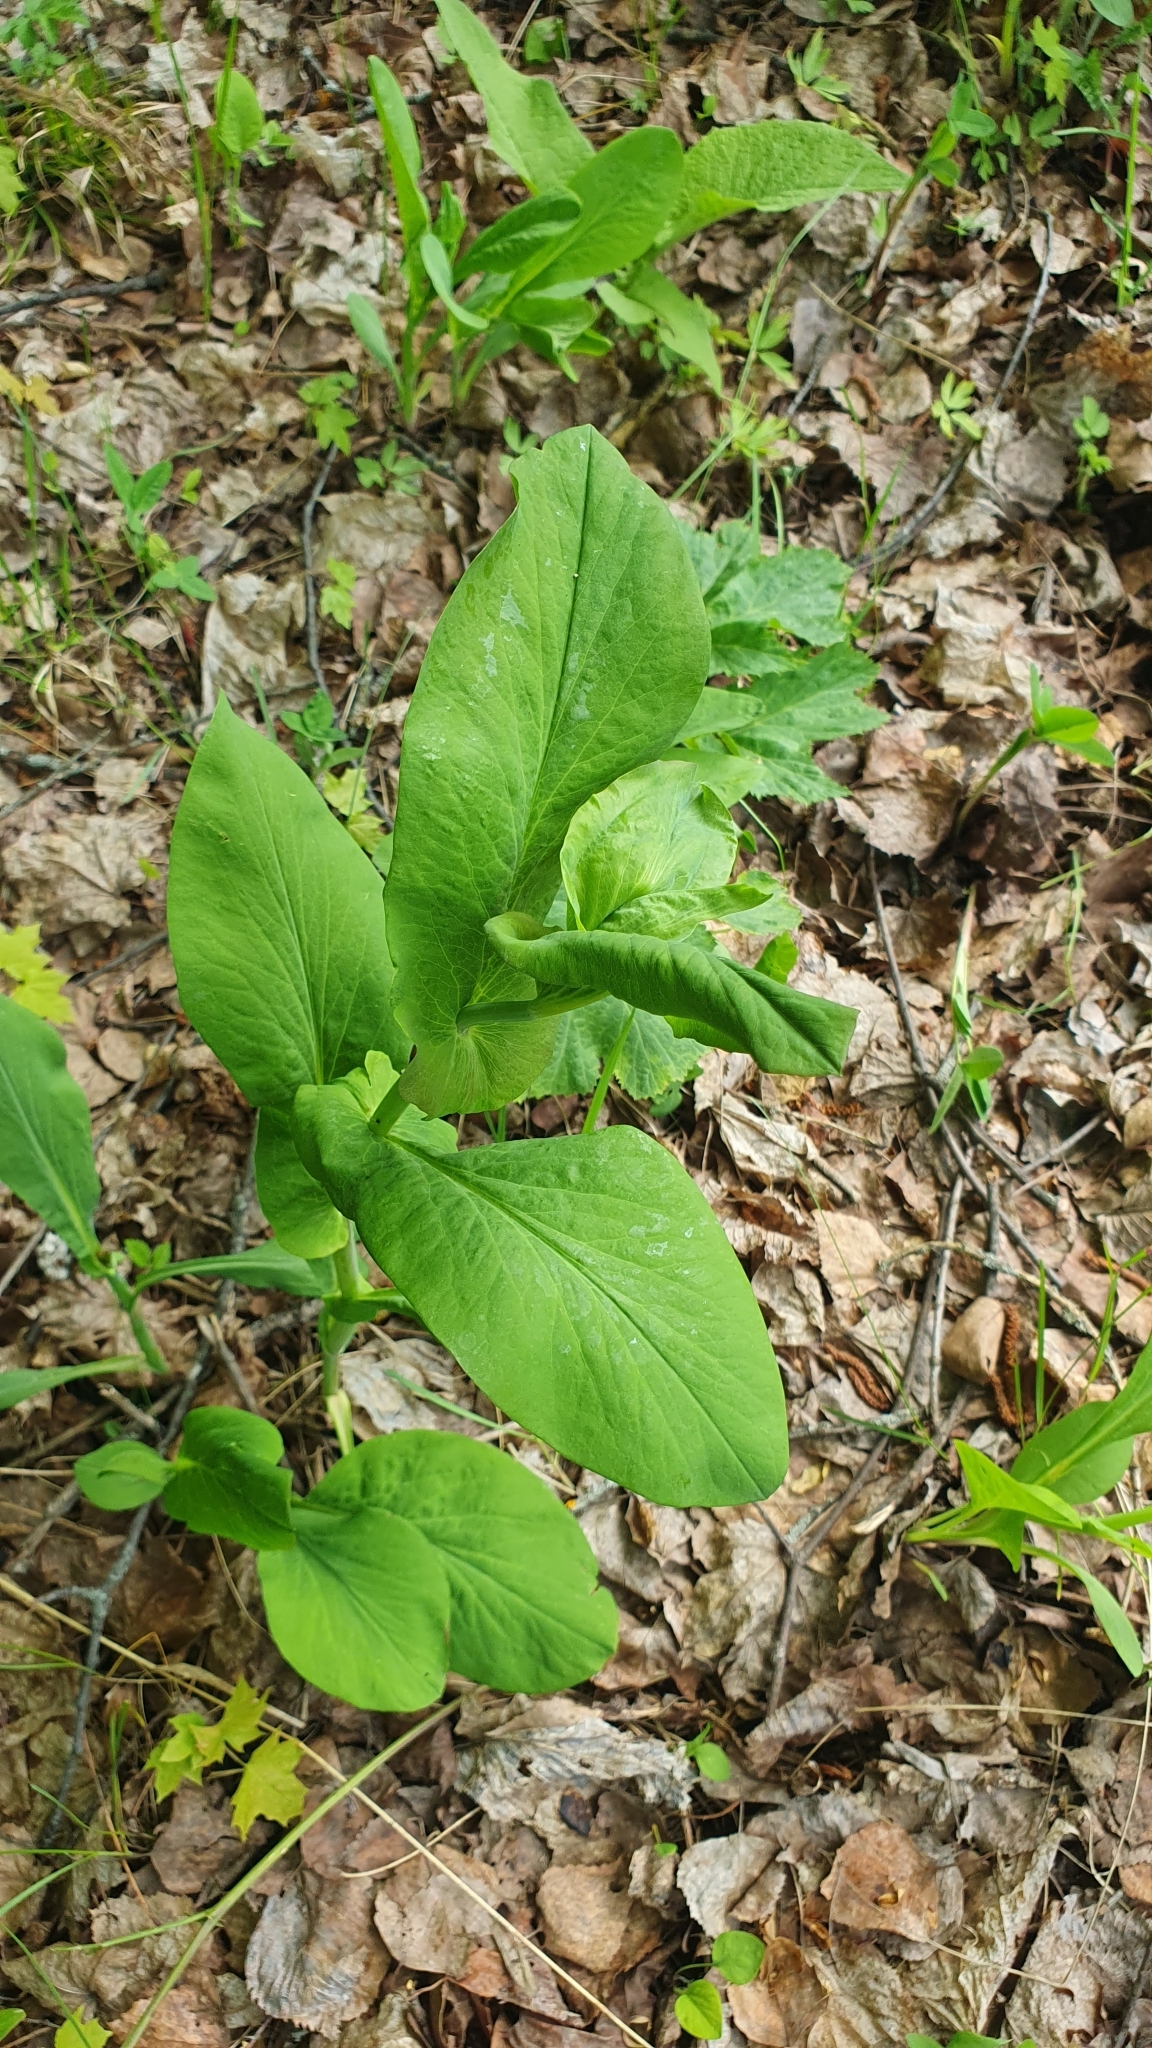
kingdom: Plantae
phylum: Tracheophyta
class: Magnoliopsida
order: Apiales
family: Apiaceae
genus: Bupleurum
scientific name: Bupleurum aureum
